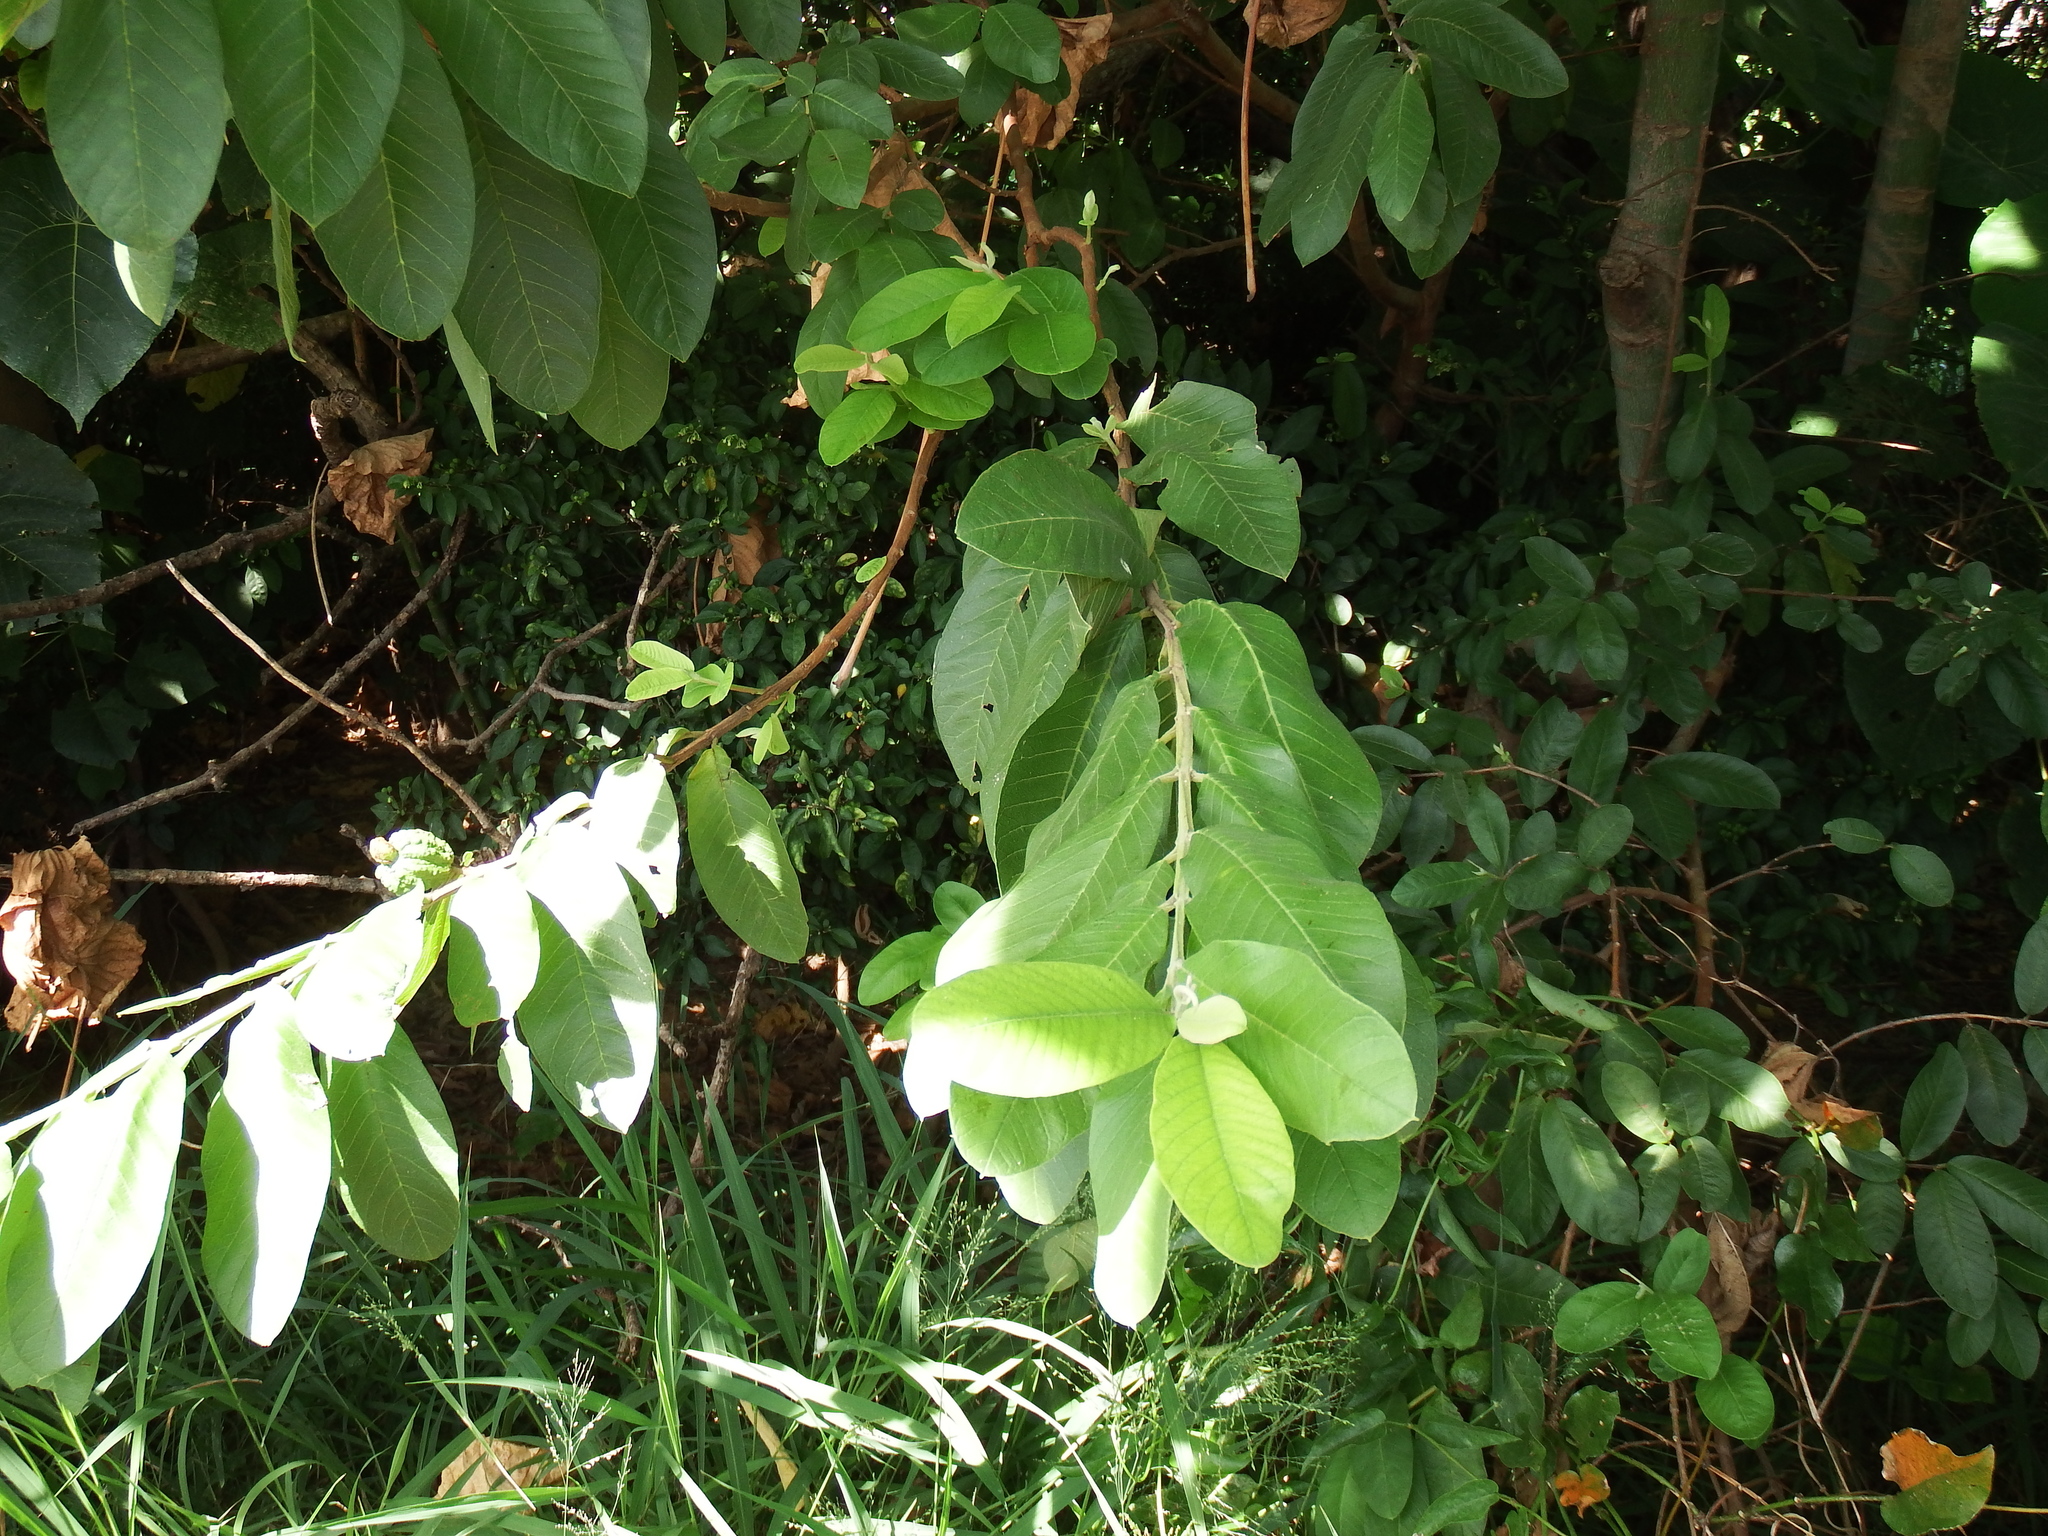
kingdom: Plantae
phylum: Tracheophyta
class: Magnoliopsida
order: Myrtales
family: Myrtaceae
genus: Psidium
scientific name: Psidium guajava
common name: Guava
